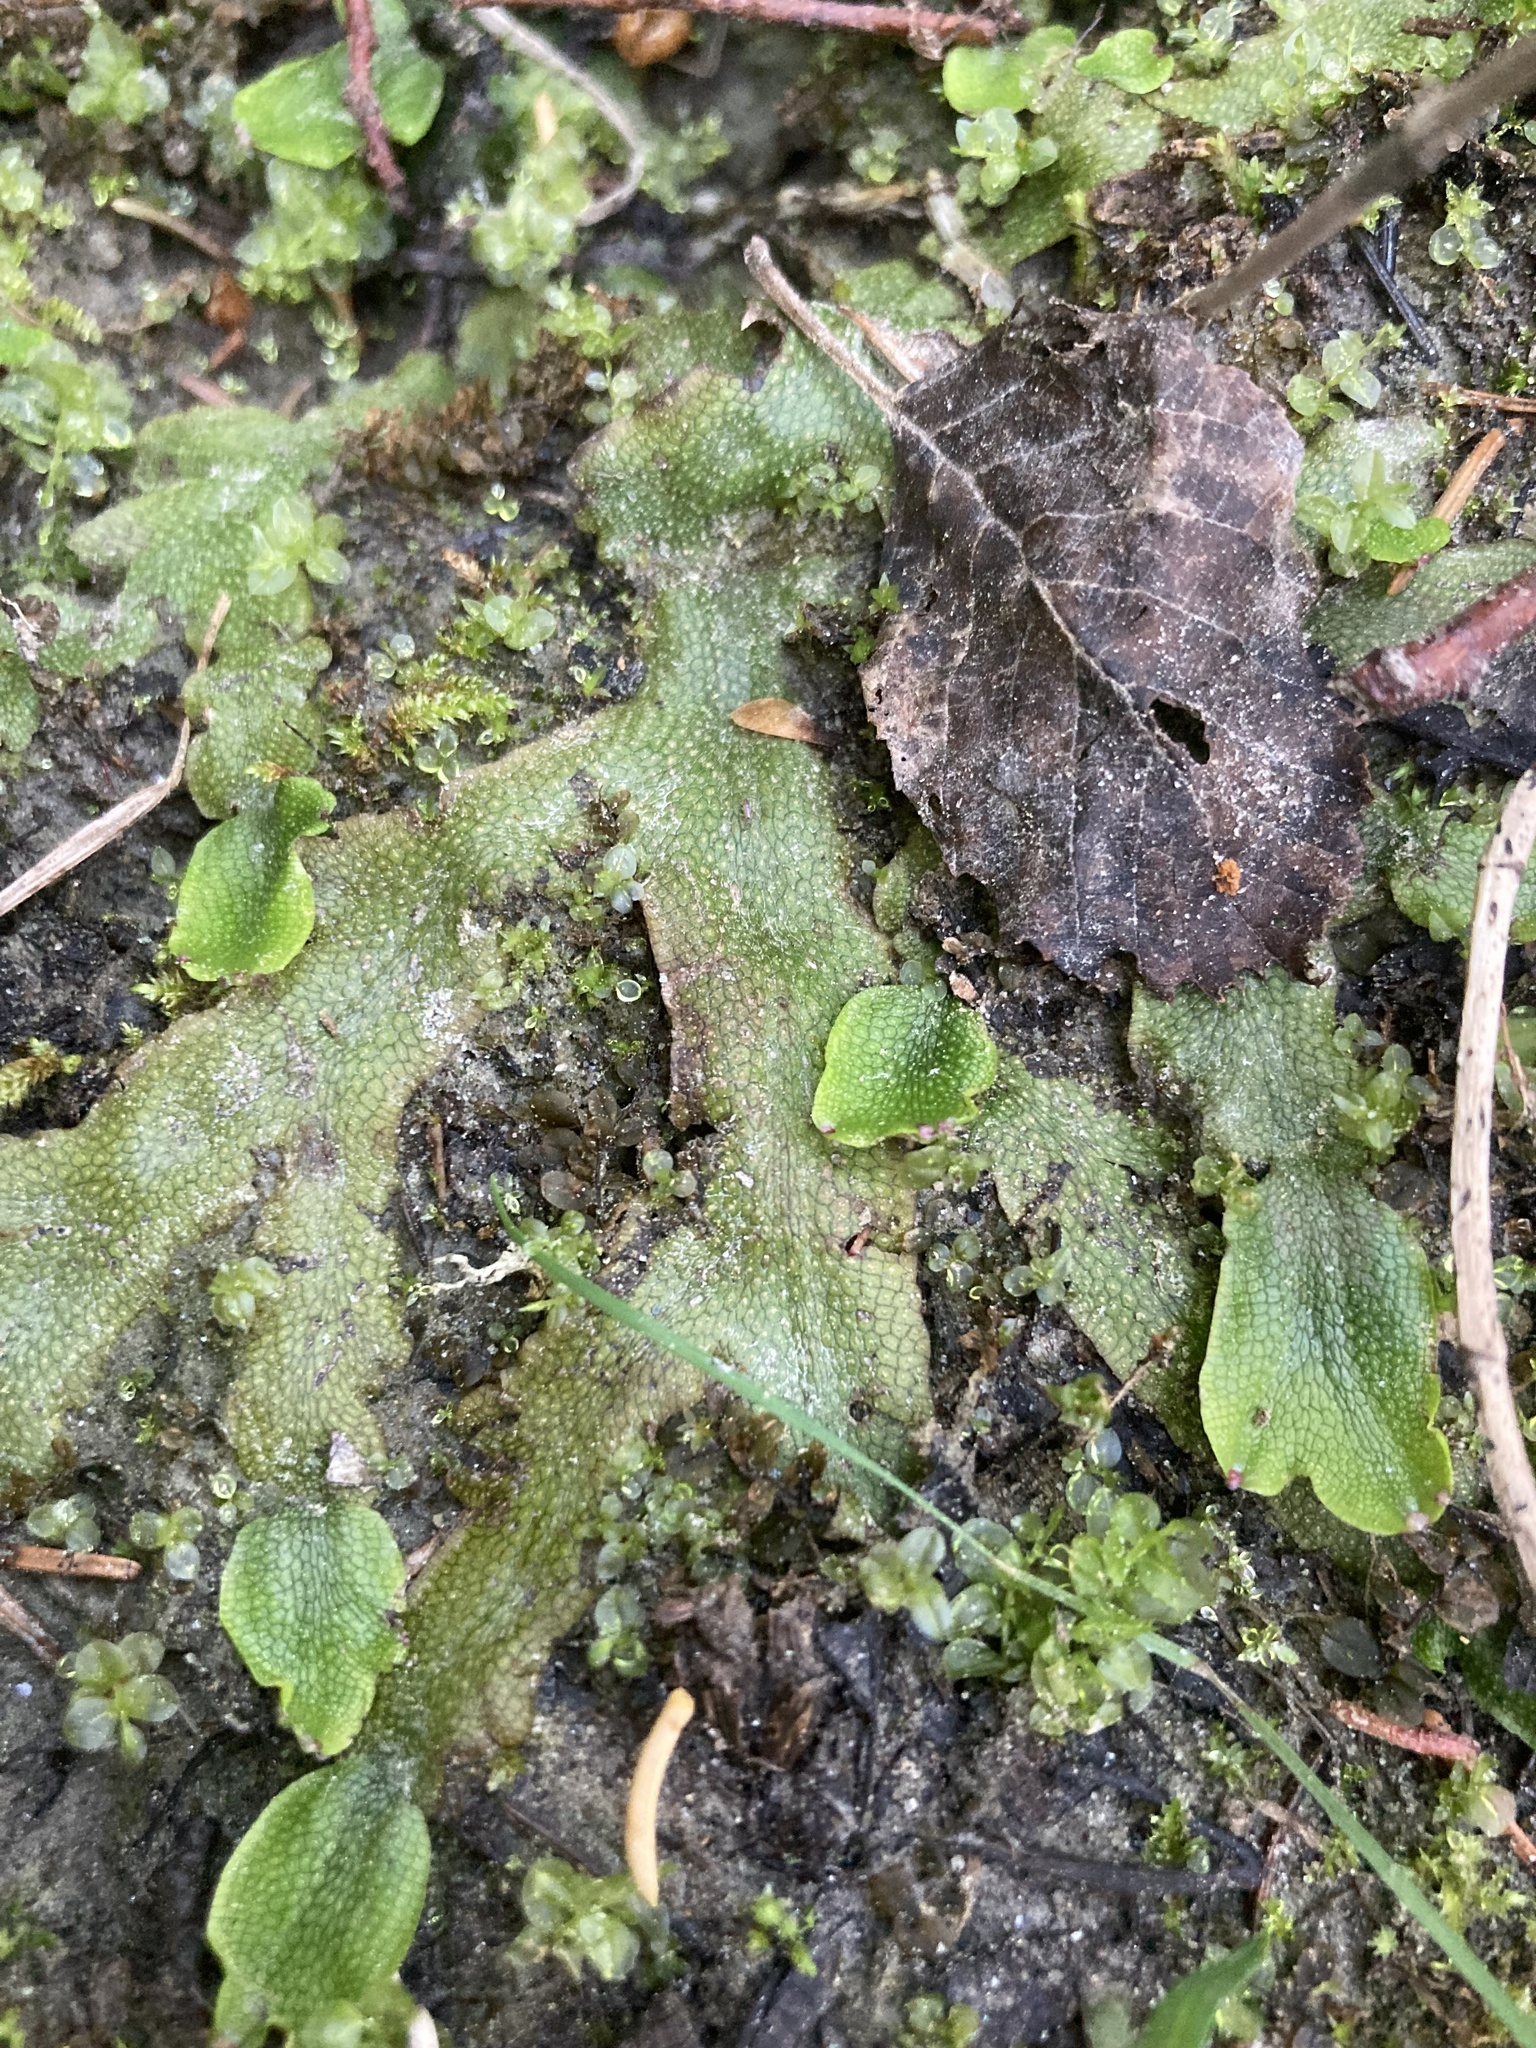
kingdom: Plantae
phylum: Marchantiophyta
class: Marchantiopsida
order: Marchantiales
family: Conocephalaceae
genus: Conocephalum
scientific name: Conocephalum salebrosum
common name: Cat-tongue liverwort
